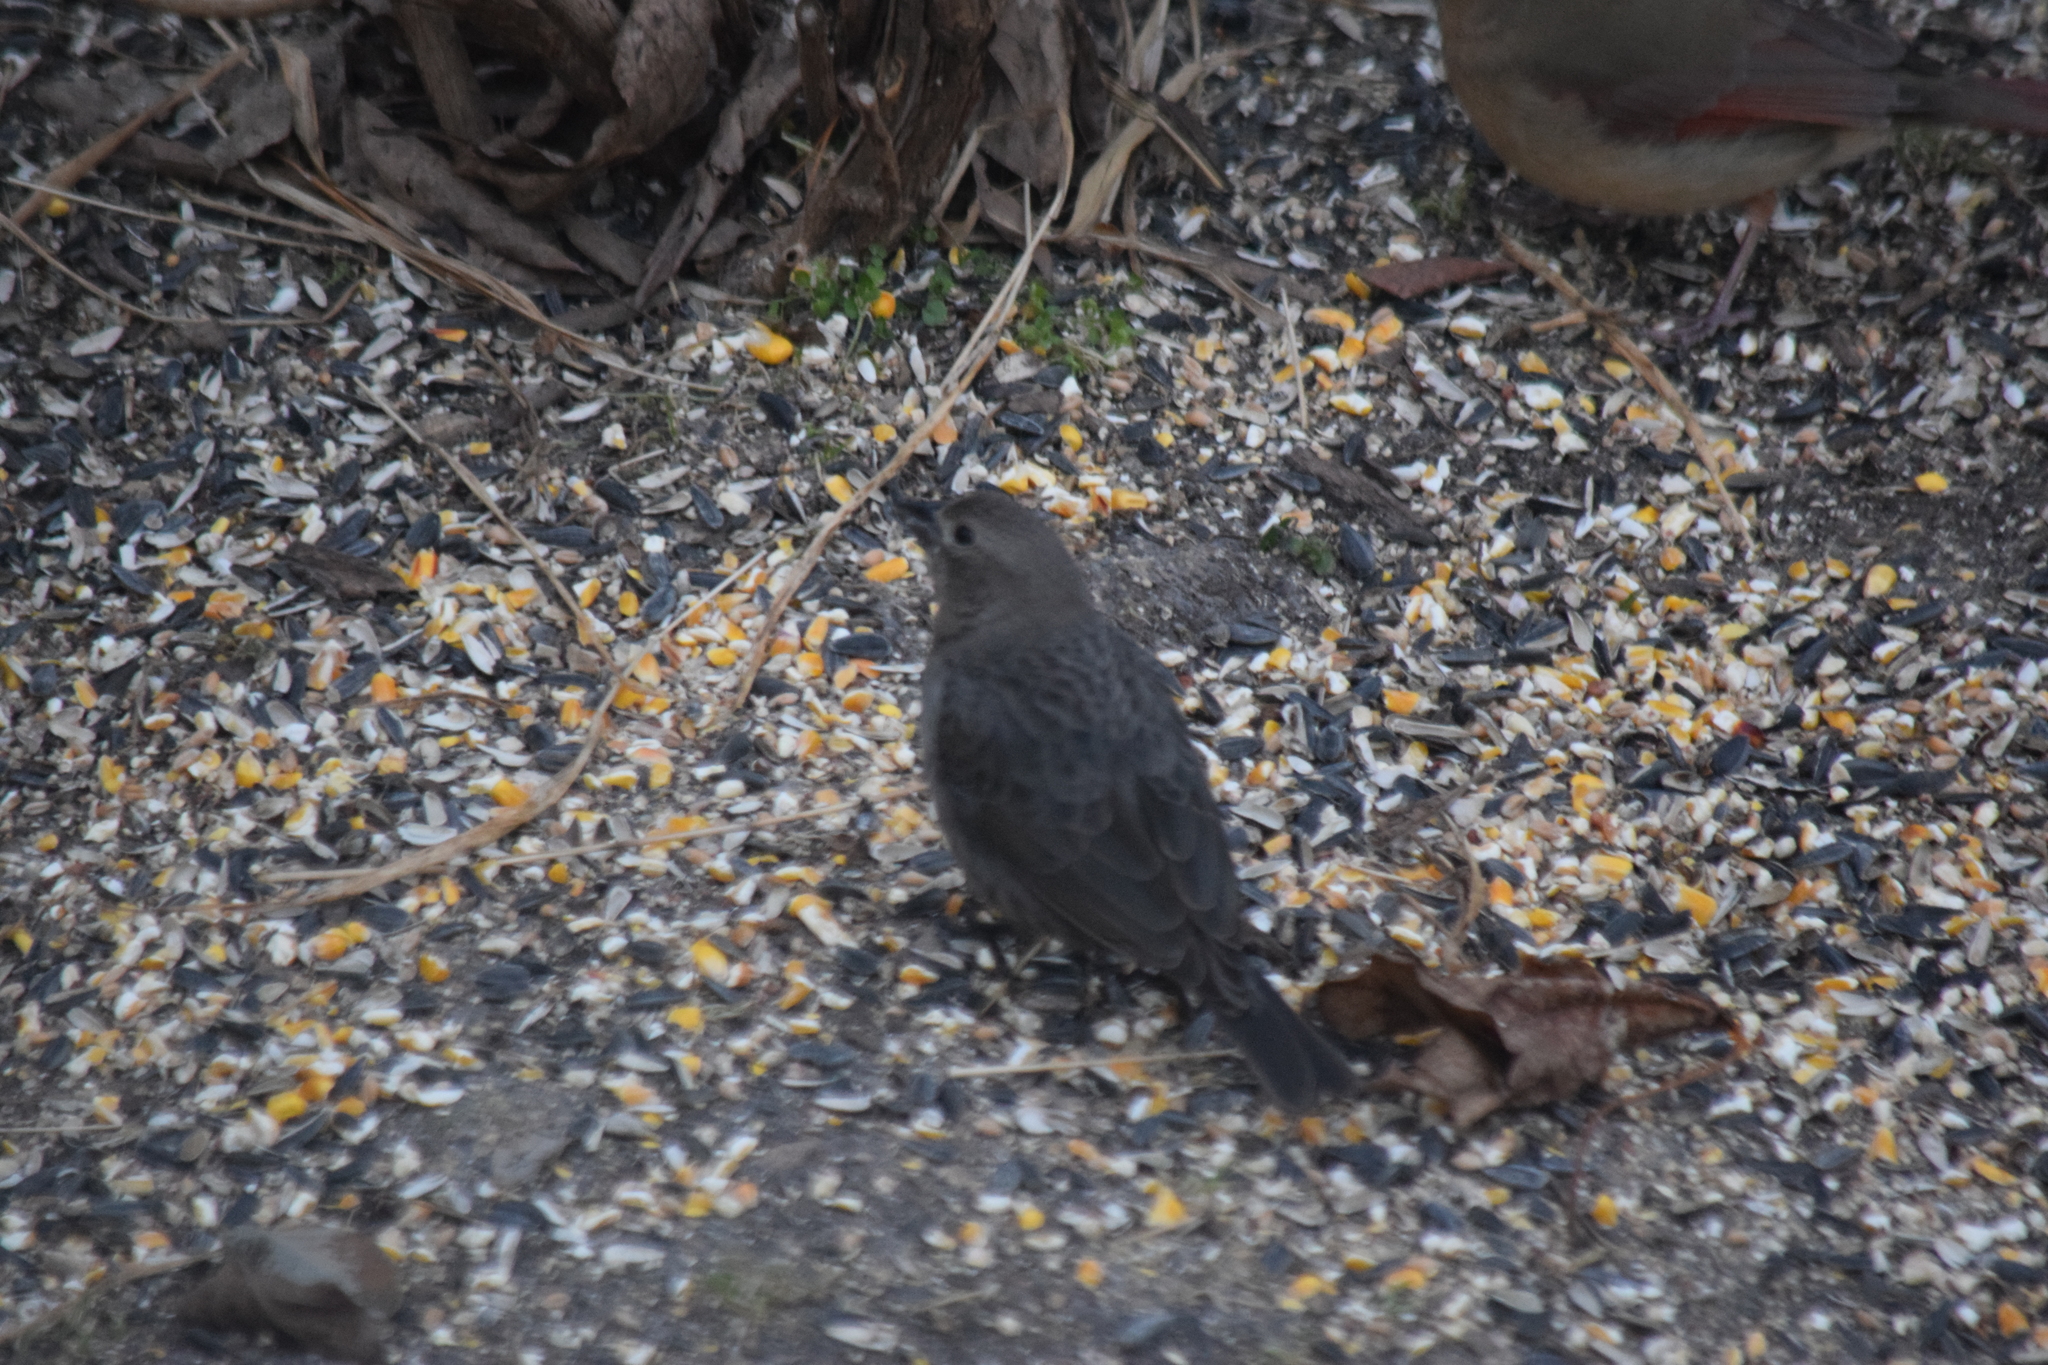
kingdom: Animalia
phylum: Chordata
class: Aves
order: Passeriformes
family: Icteridae
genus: Molothrus
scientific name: Molothrus ater
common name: Brown-headed cowbird
